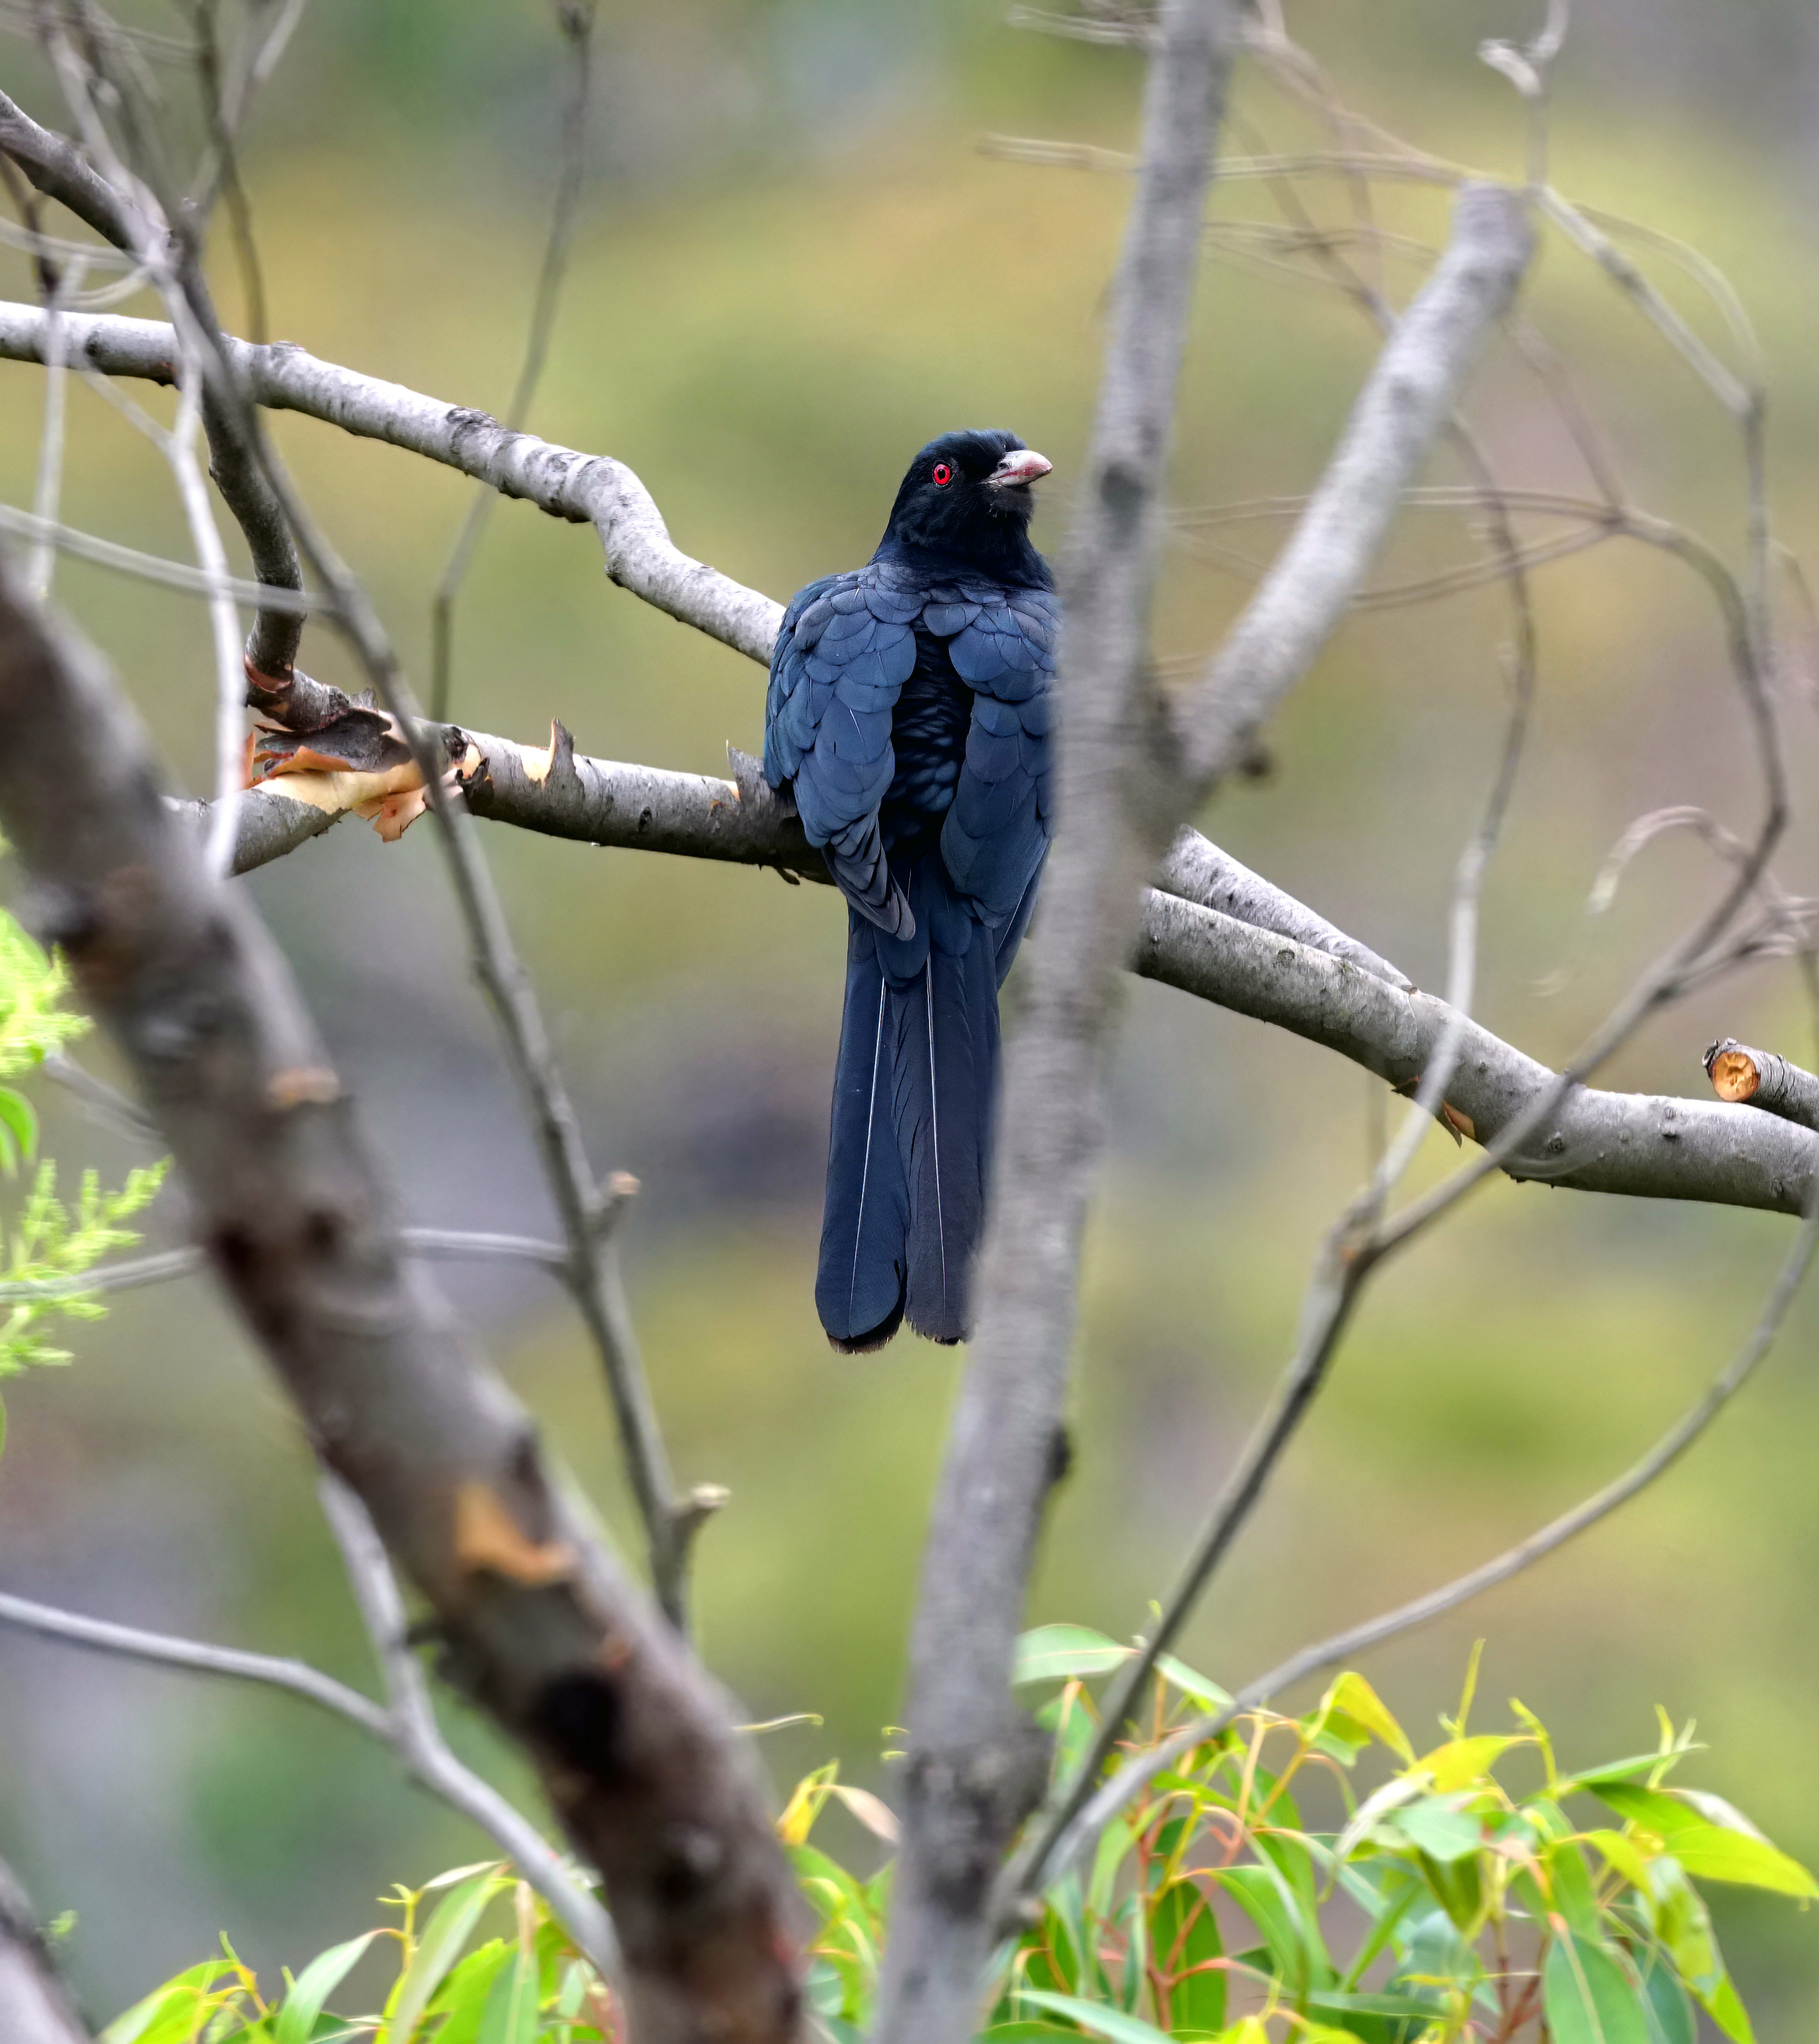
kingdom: Animalia
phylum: Chordata
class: Aves
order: Cuculiformes
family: Cuculidae
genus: Eudynamys
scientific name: Eudynamys orientalis
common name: Pacific koel
